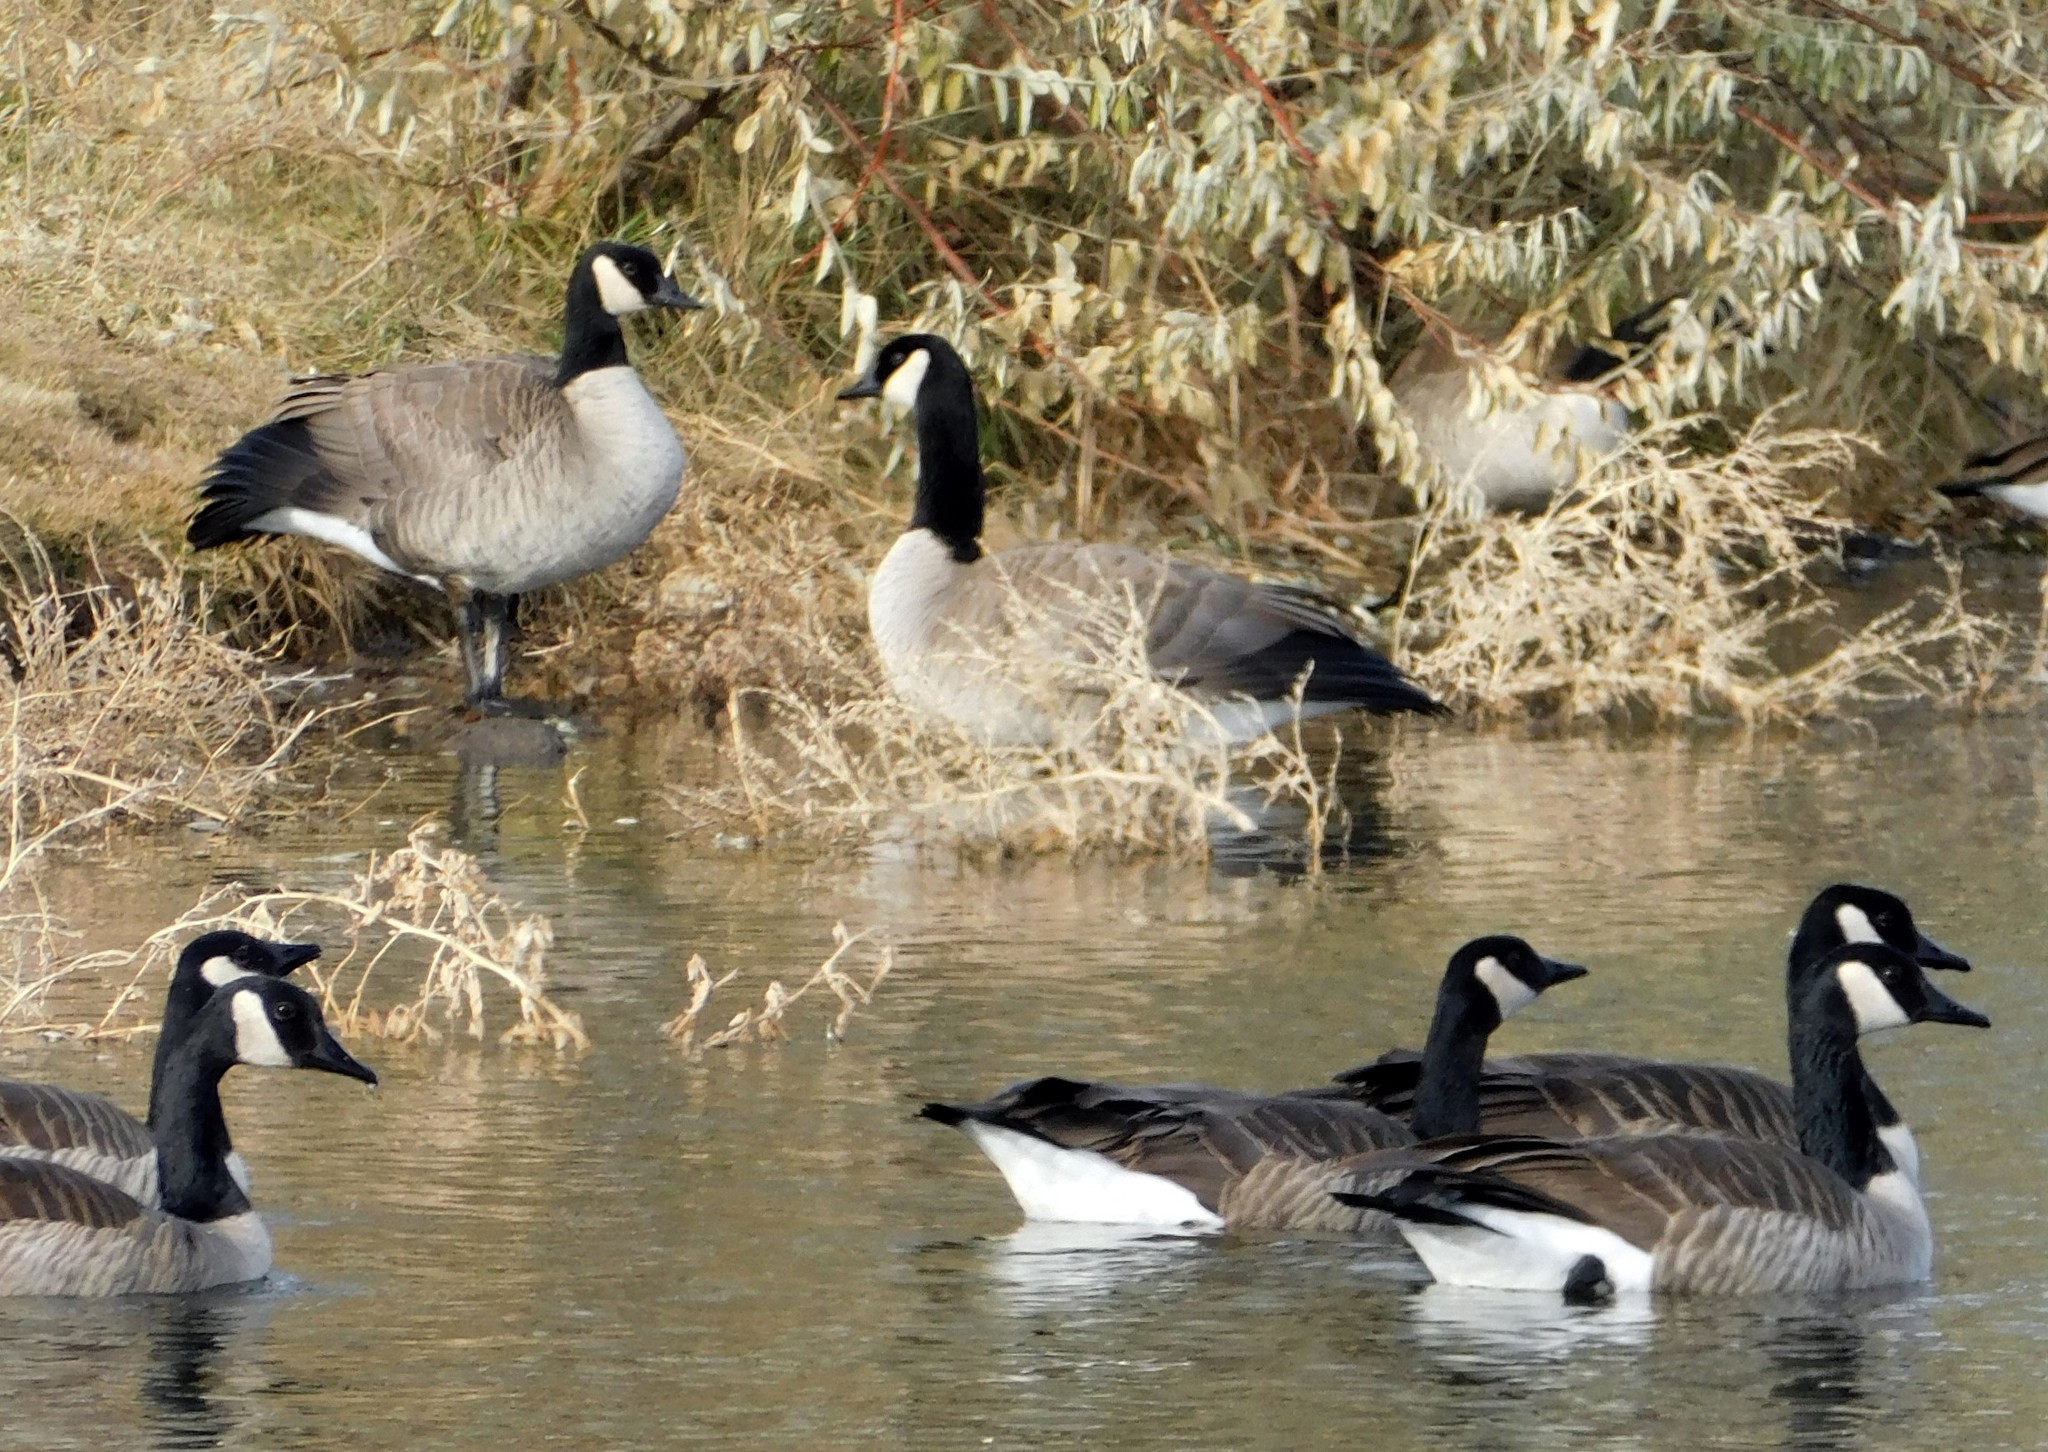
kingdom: Animalia
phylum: Chordata
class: Aves
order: Anseriformes
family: Anatidae
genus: Branta
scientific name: Branta canadensis
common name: Canada goose
